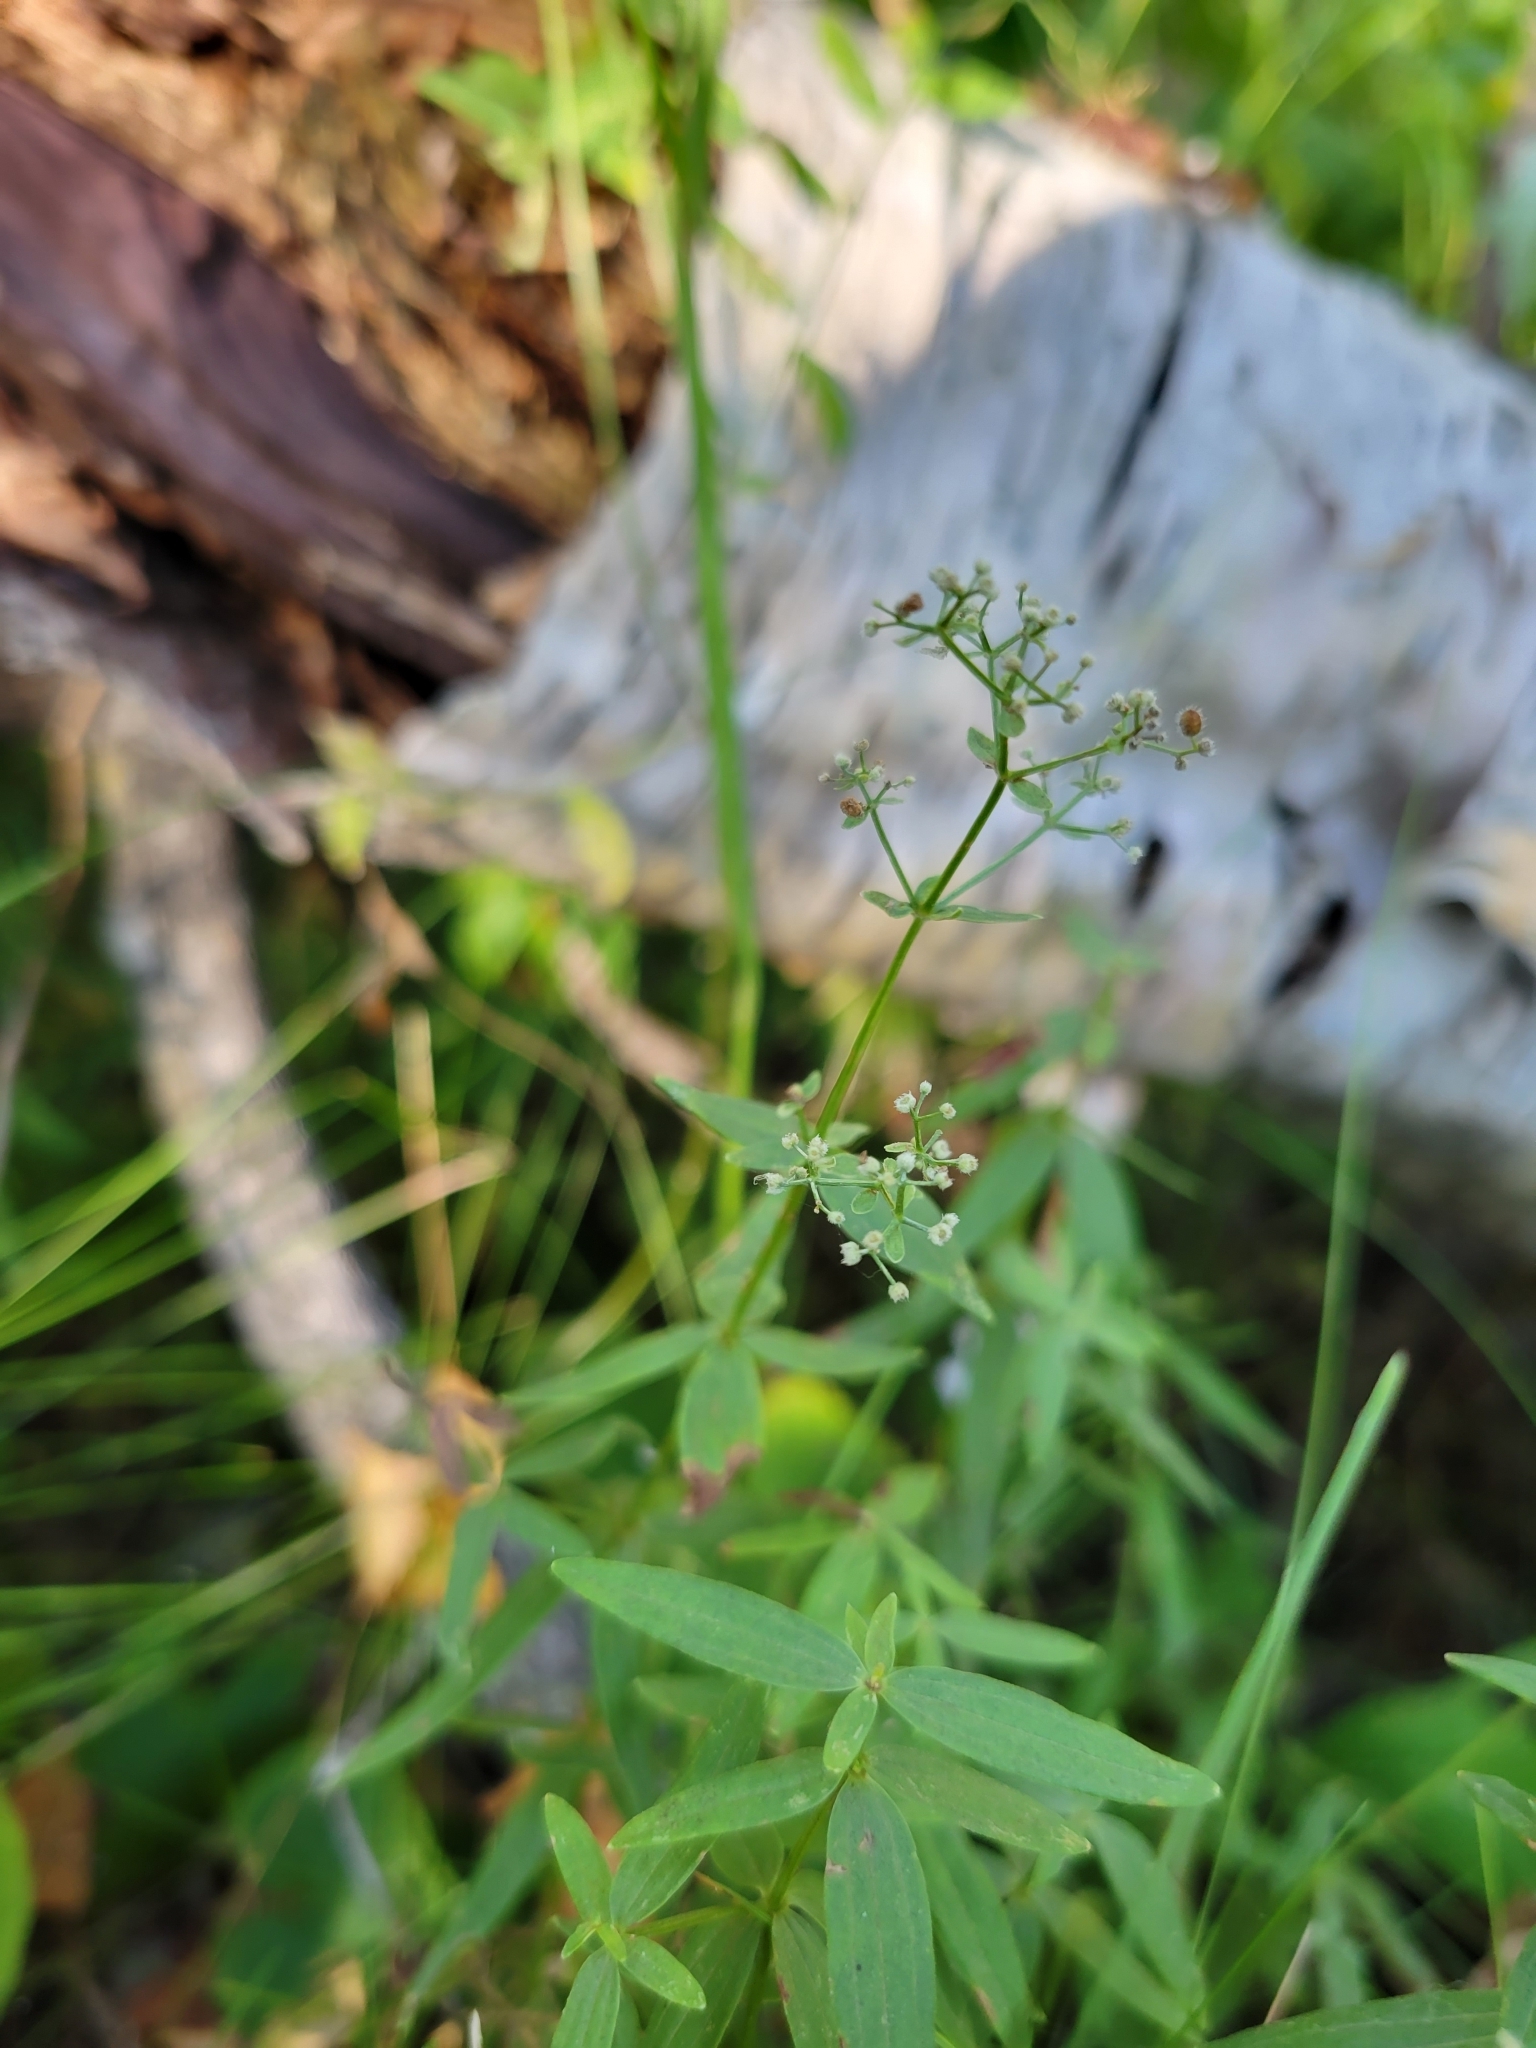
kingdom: Plantae
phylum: Tracheophyta
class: Magnoliopsida
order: Gentianales
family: Rubiaceae
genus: Galium
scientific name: Galium boreale
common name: Northern bedstraw
